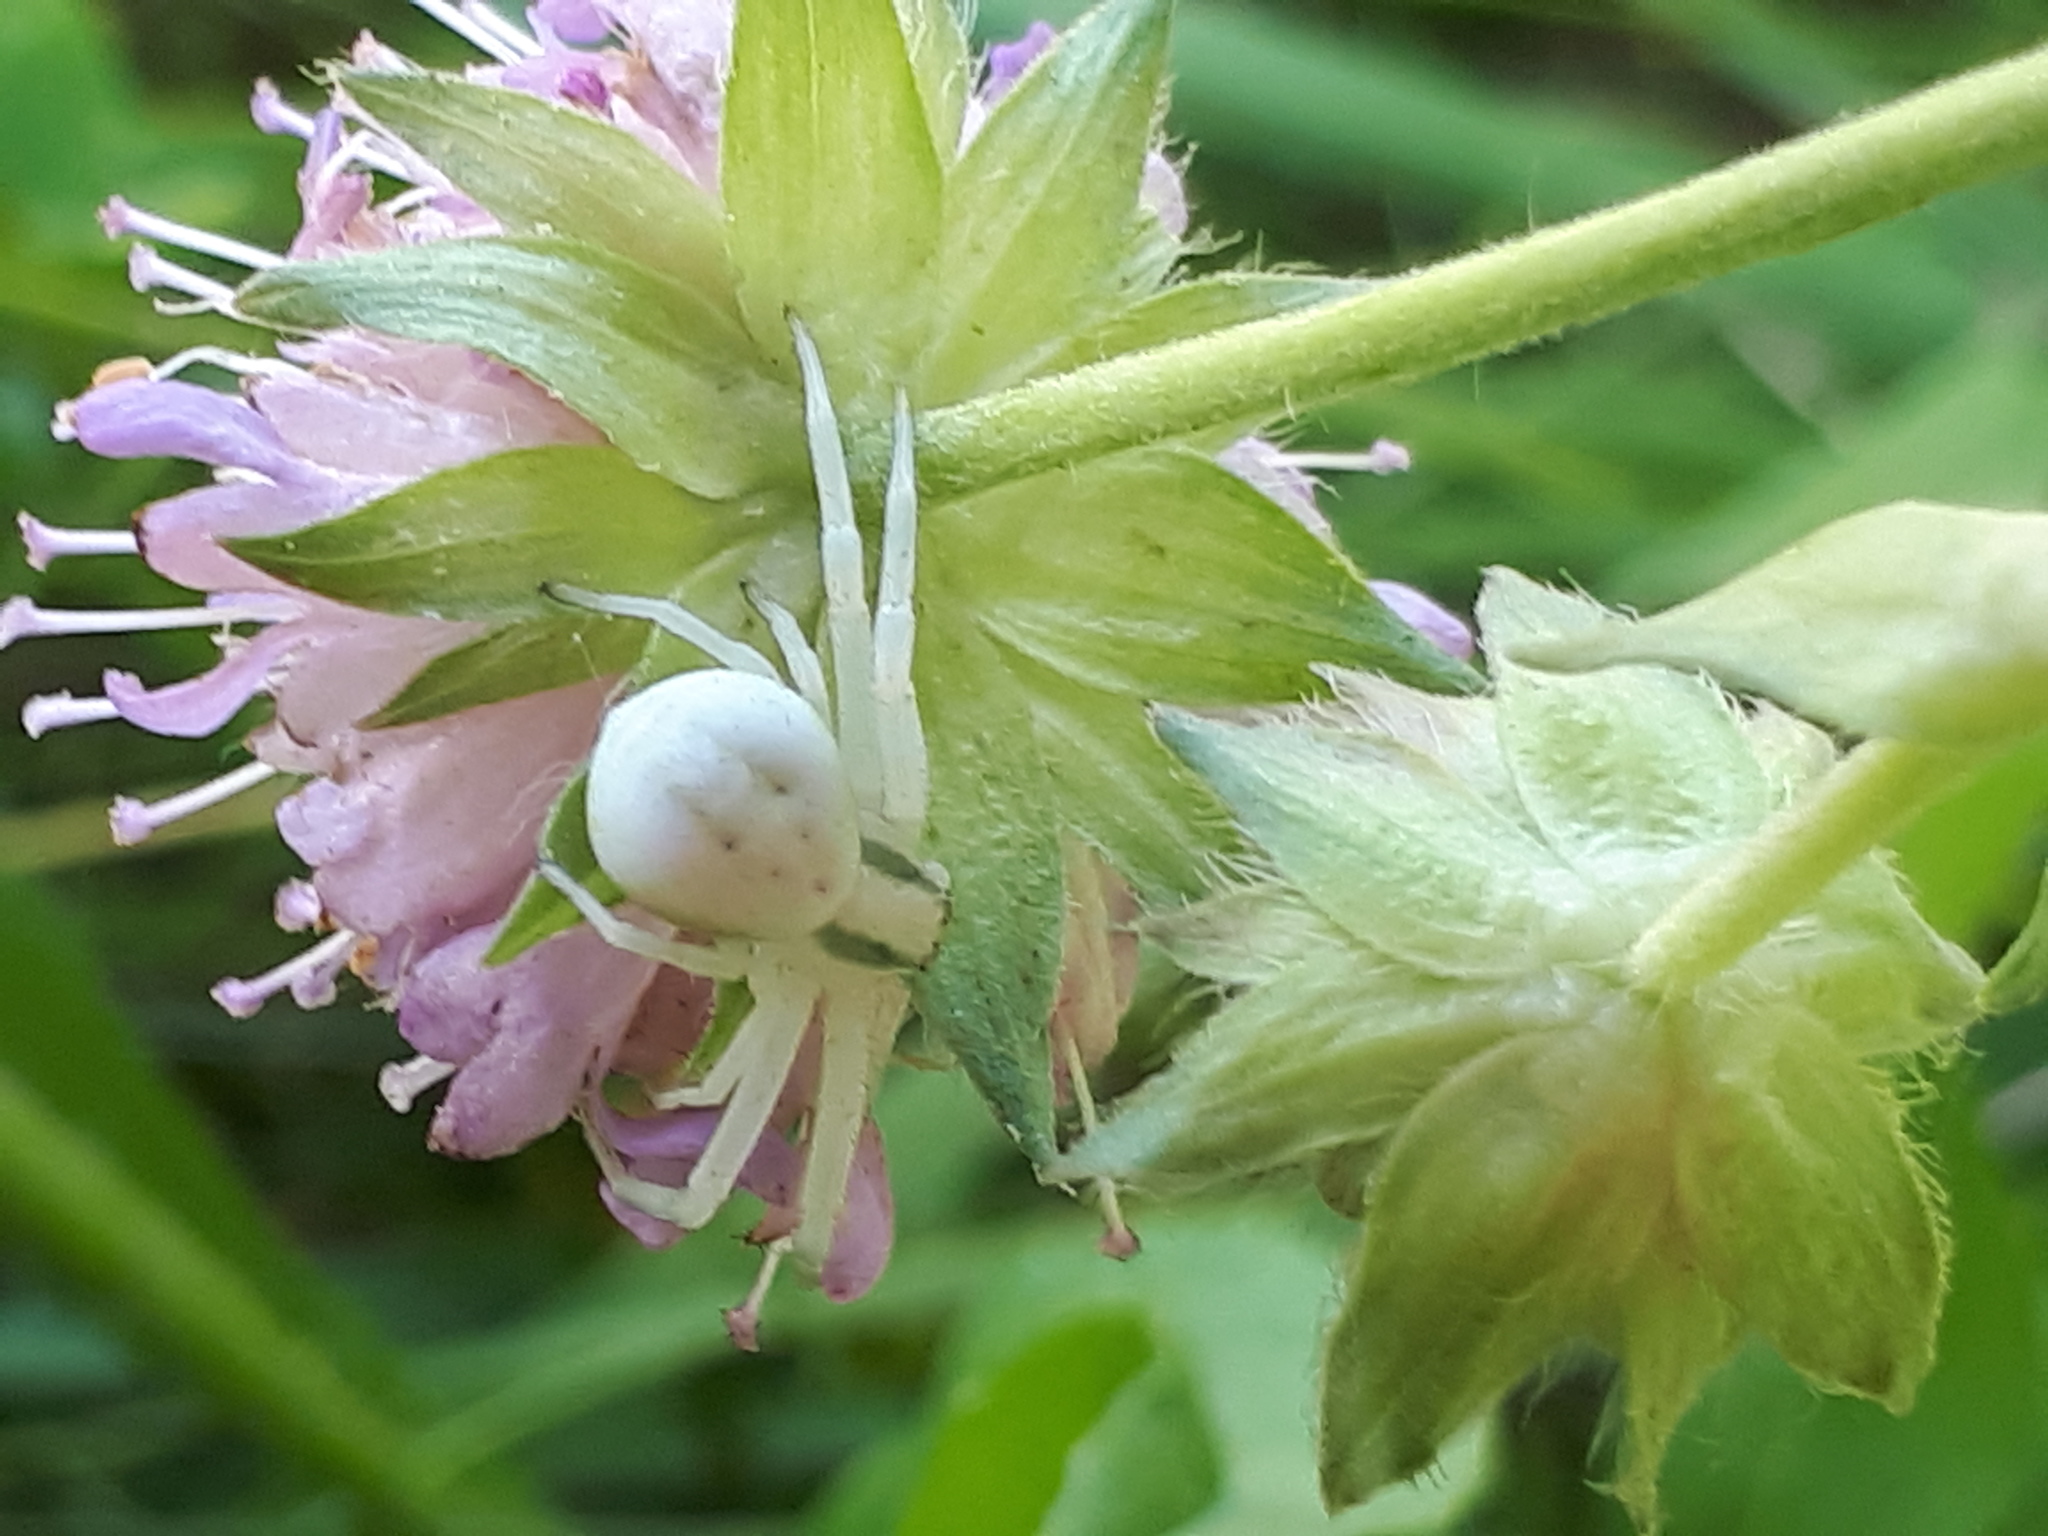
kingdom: Animalia
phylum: Arthropoda
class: Arachnida
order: Araneae
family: Thomisidae
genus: Misumena
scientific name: Misumena vatia
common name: Goldenrod crab spider
